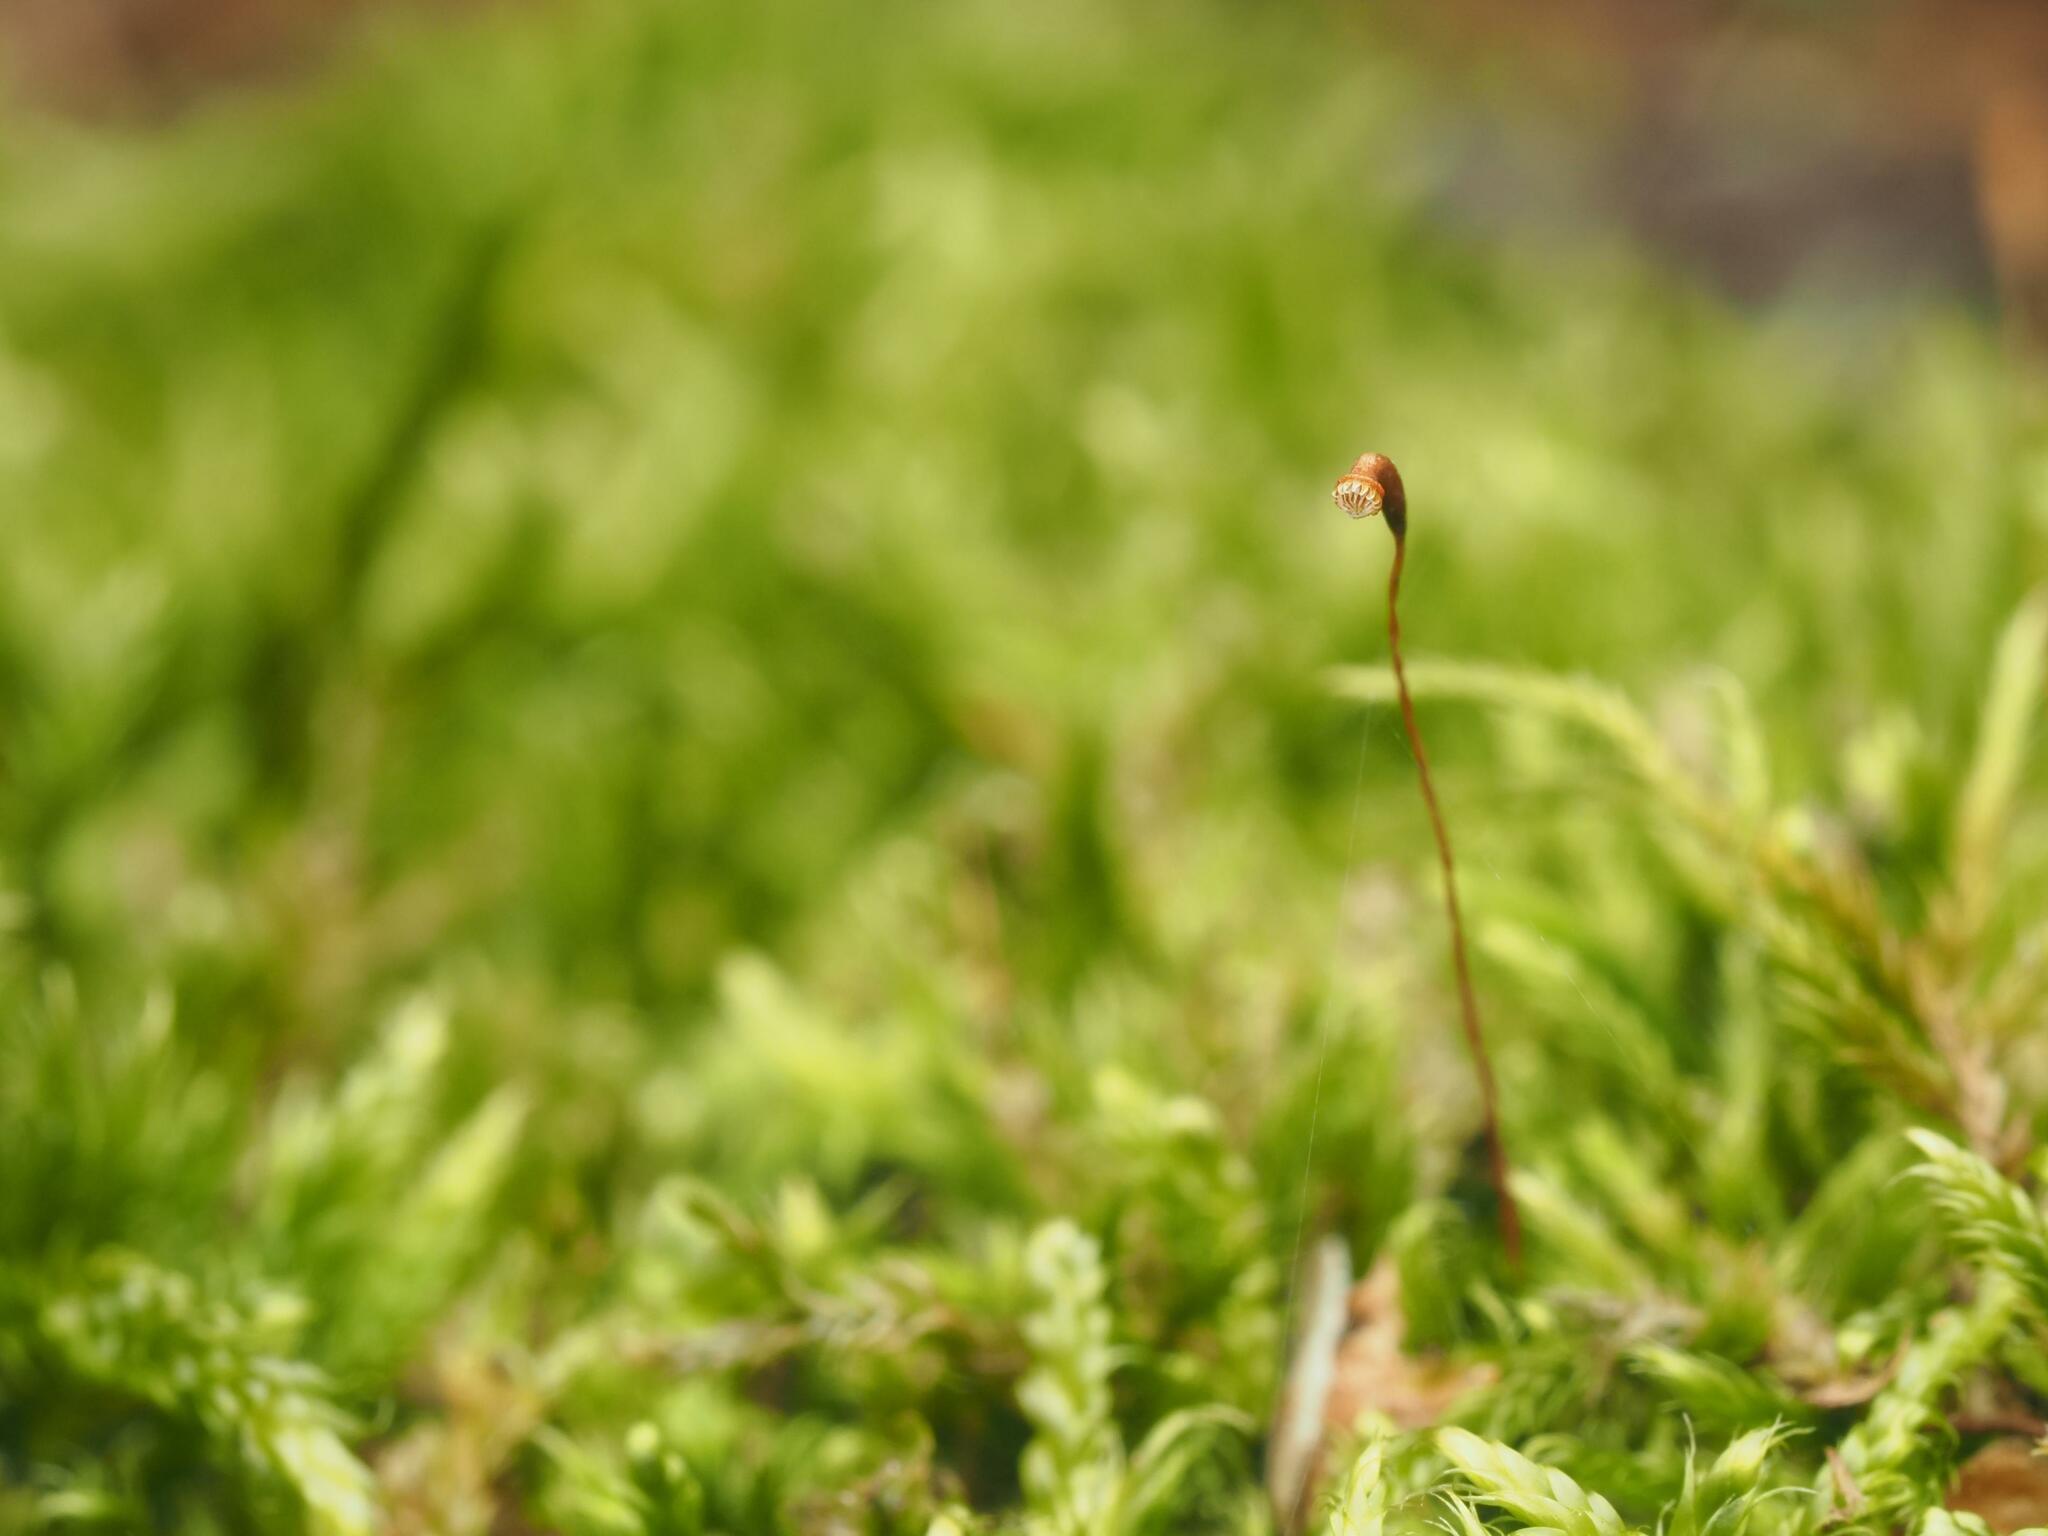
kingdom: Plantae
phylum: Bryophyta
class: Bryopsida
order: Hypnales
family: Hypnaceae
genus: Hypnum
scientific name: Hypnum cupressiforme
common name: Cypress-leaved plait-moss
